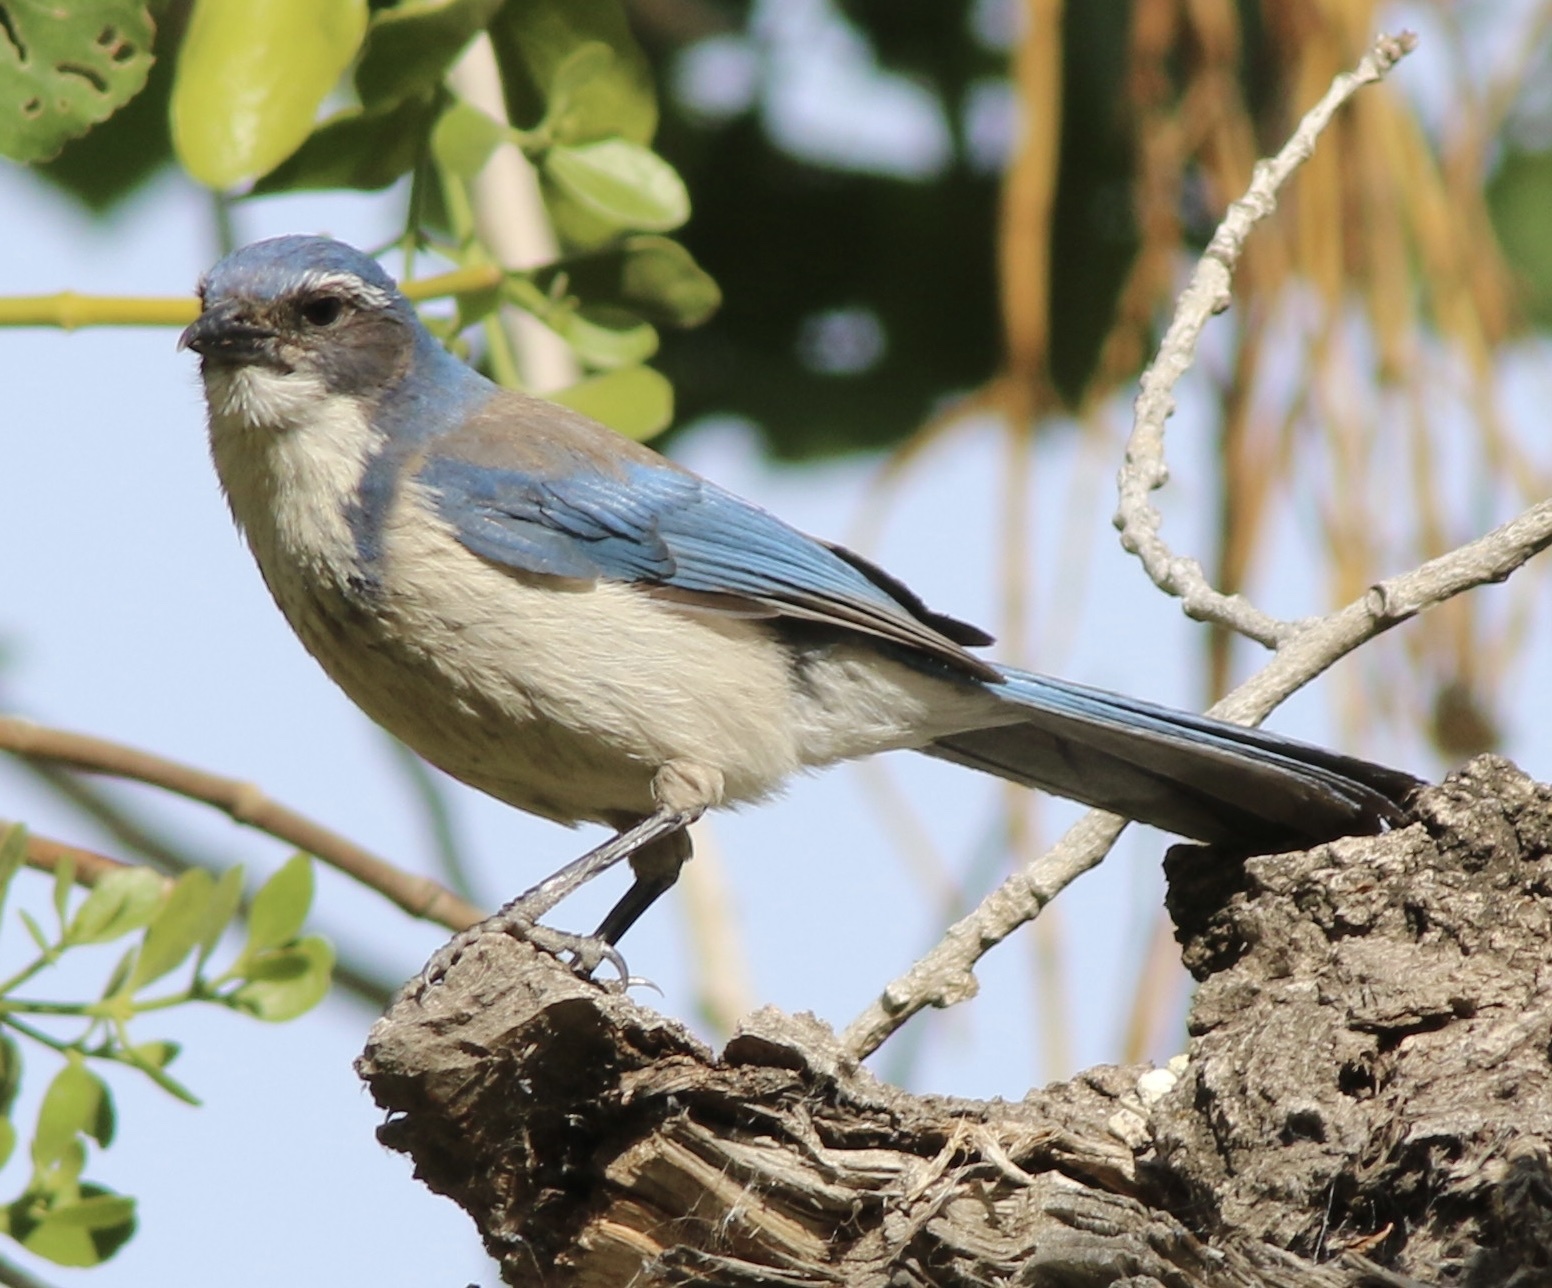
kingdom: Animalia
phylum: Chordata
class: Aves
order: Passeriformes
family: Corvidae
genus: Aphelocoma
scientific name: Aphelocoma californica
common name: California scrub-jay
